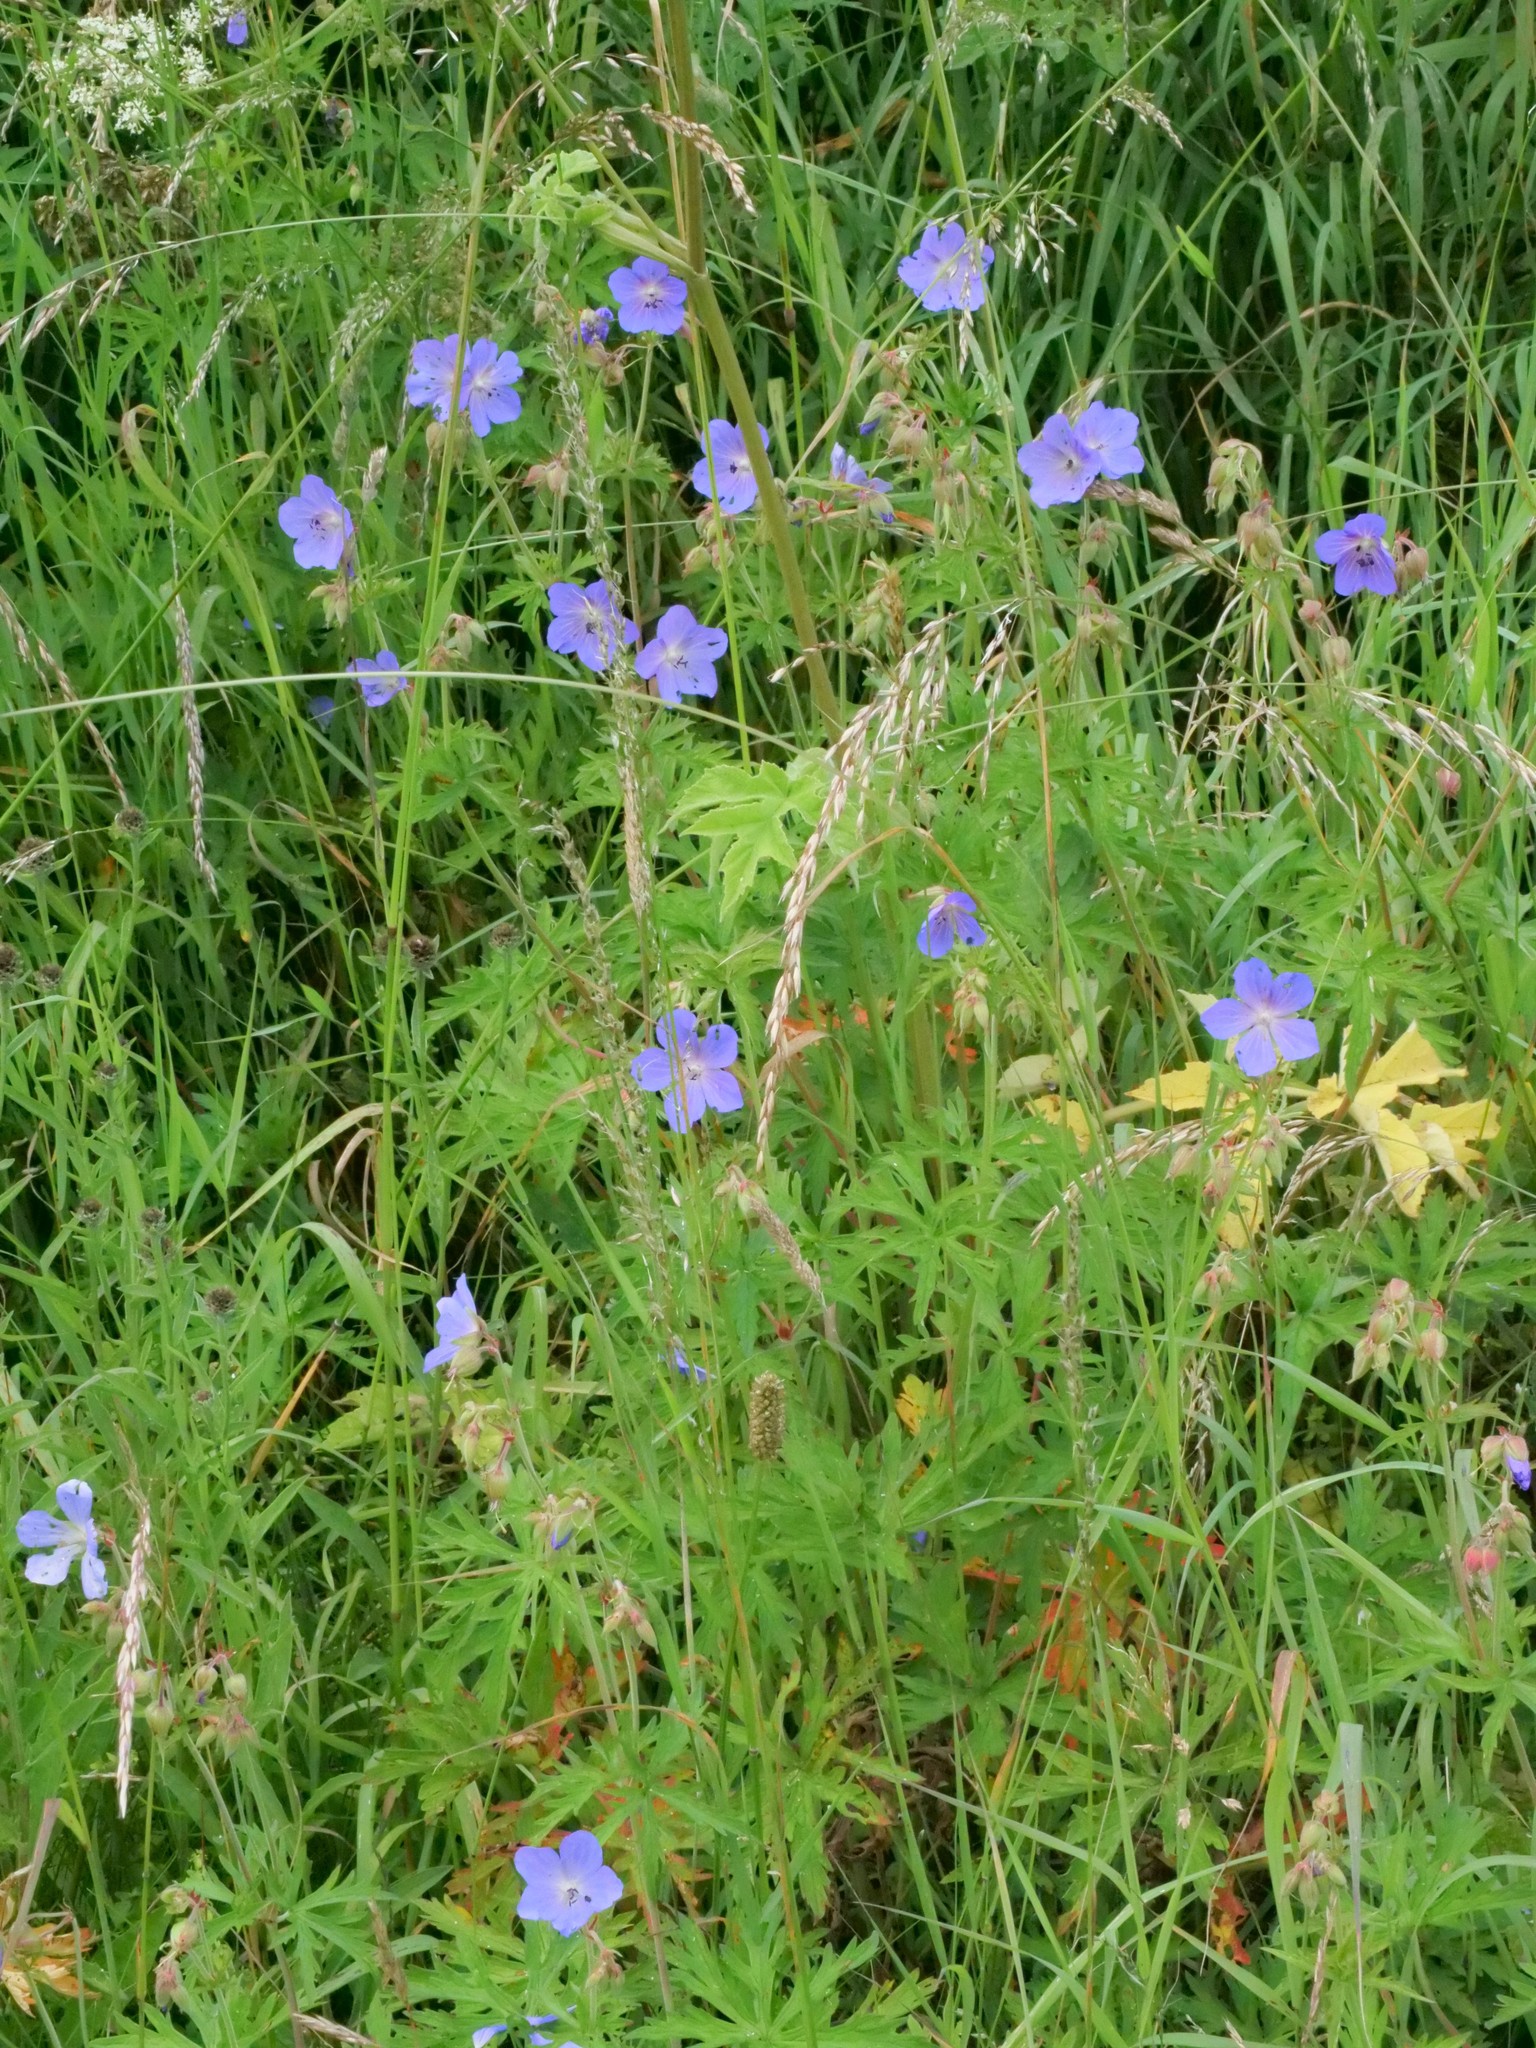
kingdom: Plantae
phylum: Tracheophyta
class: Magnoliopsida
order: Geraniales
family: Geraniaceae
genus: Geranium
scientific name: Geranium pratense
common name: Meadow crane's-bill
